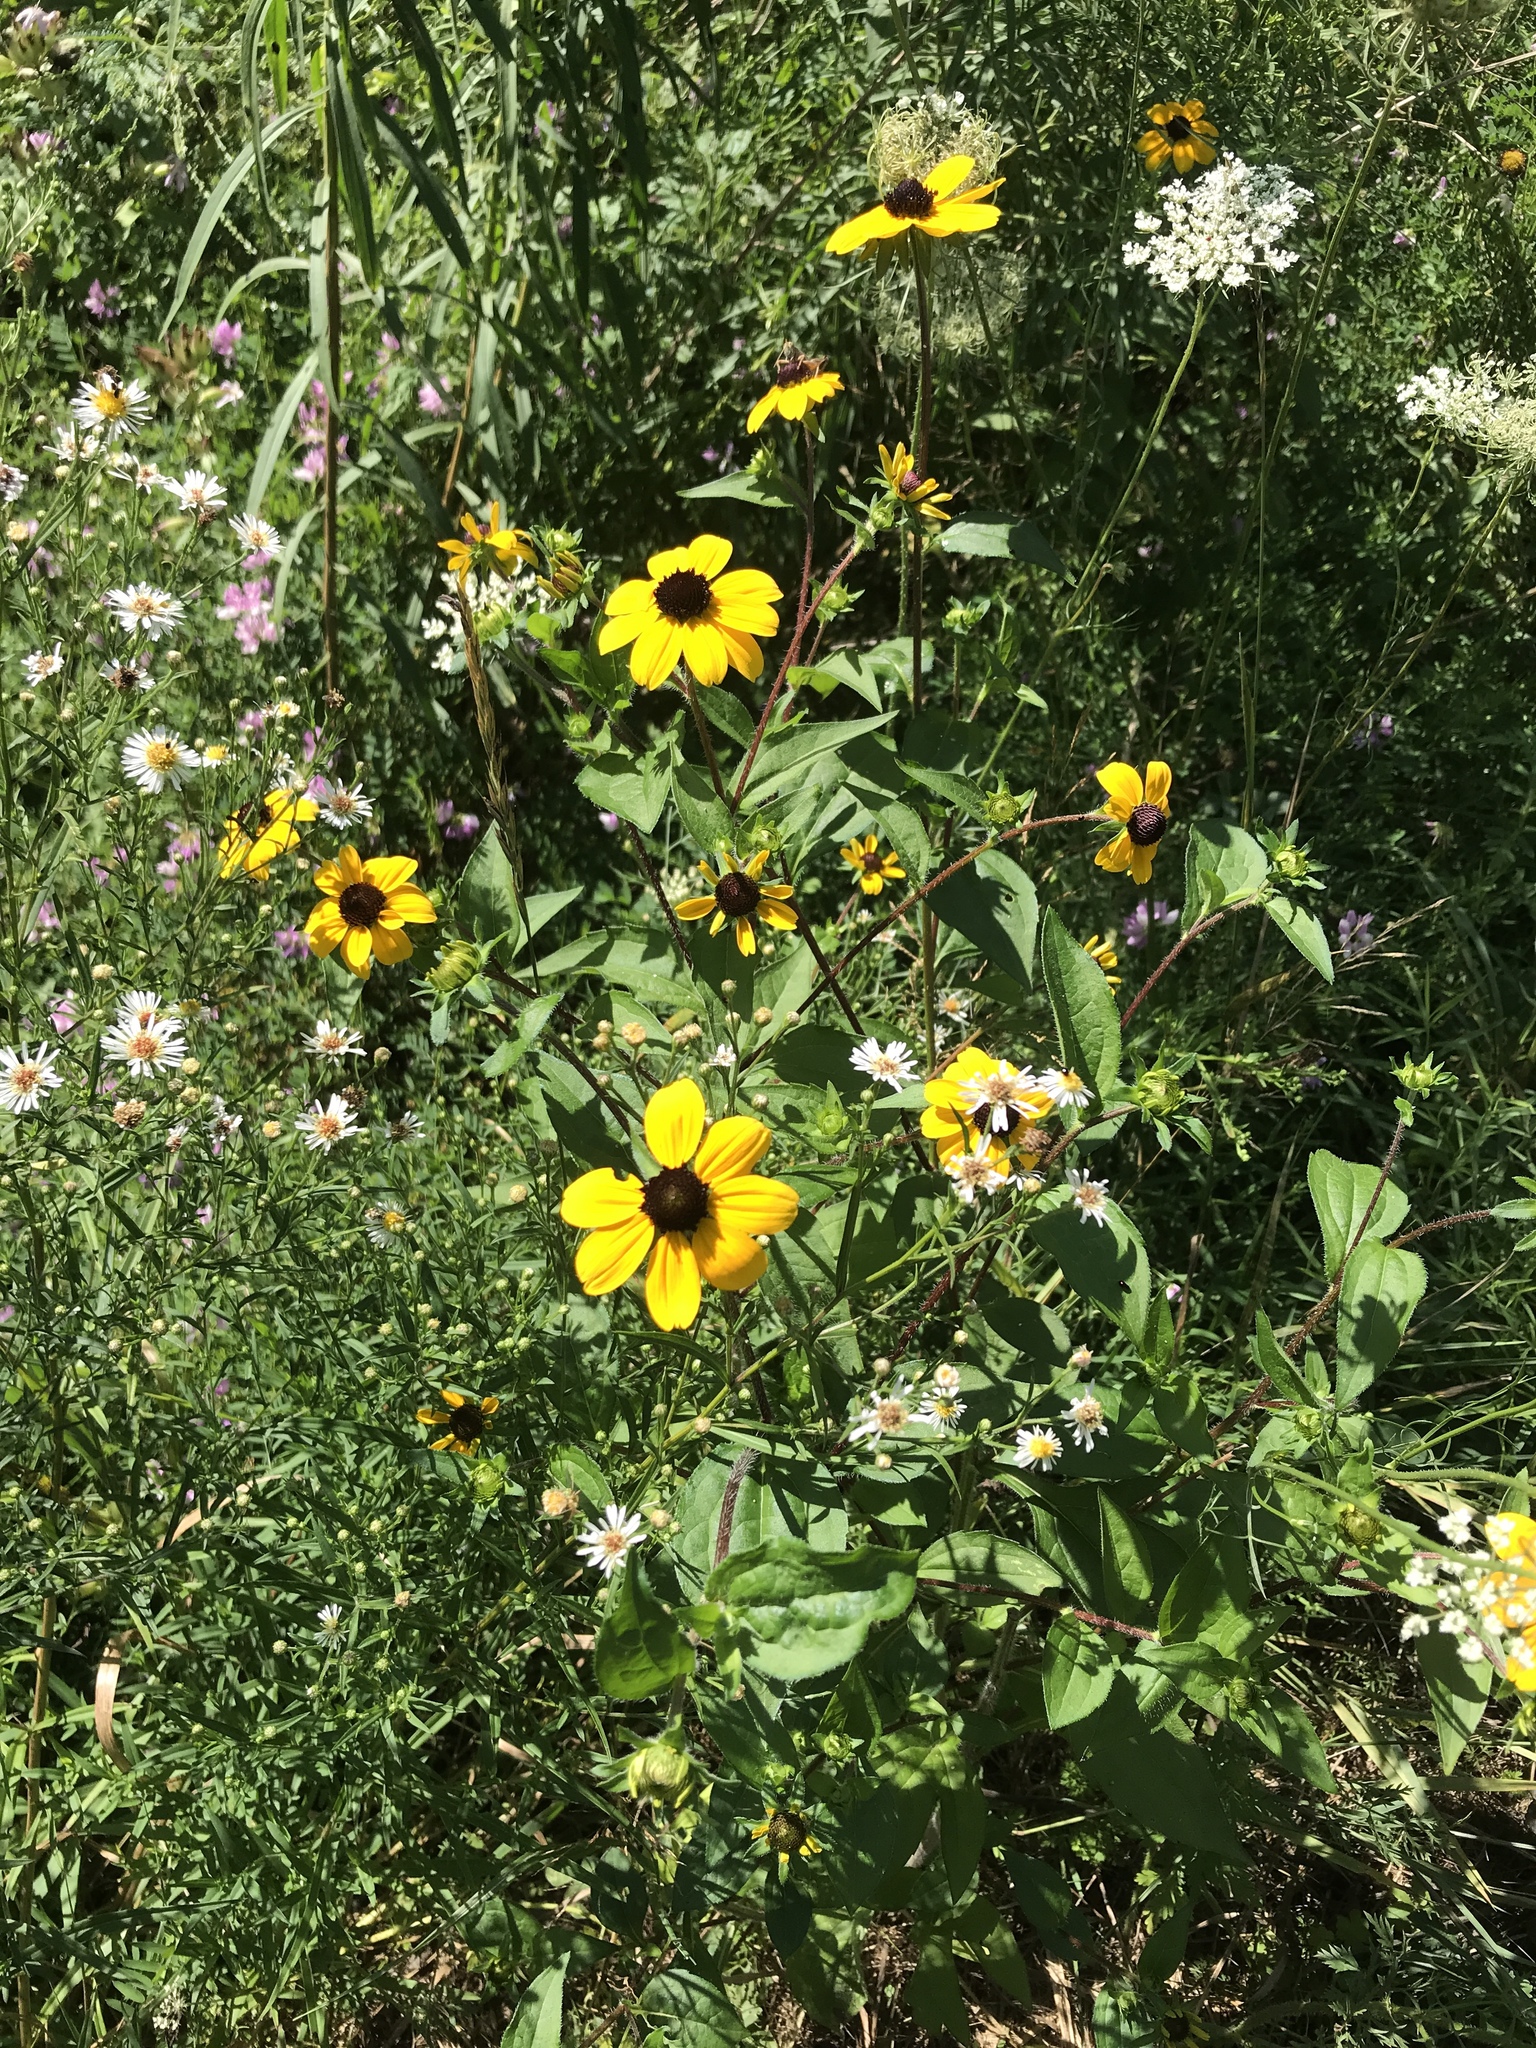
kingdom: Plantae
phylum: Tracheophyta
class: Magnoliopsida
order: Asterales
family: Asteraceae
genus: Rudbeckia
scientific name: Rudbeckia triloba
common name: Thin-leaved coneflower
